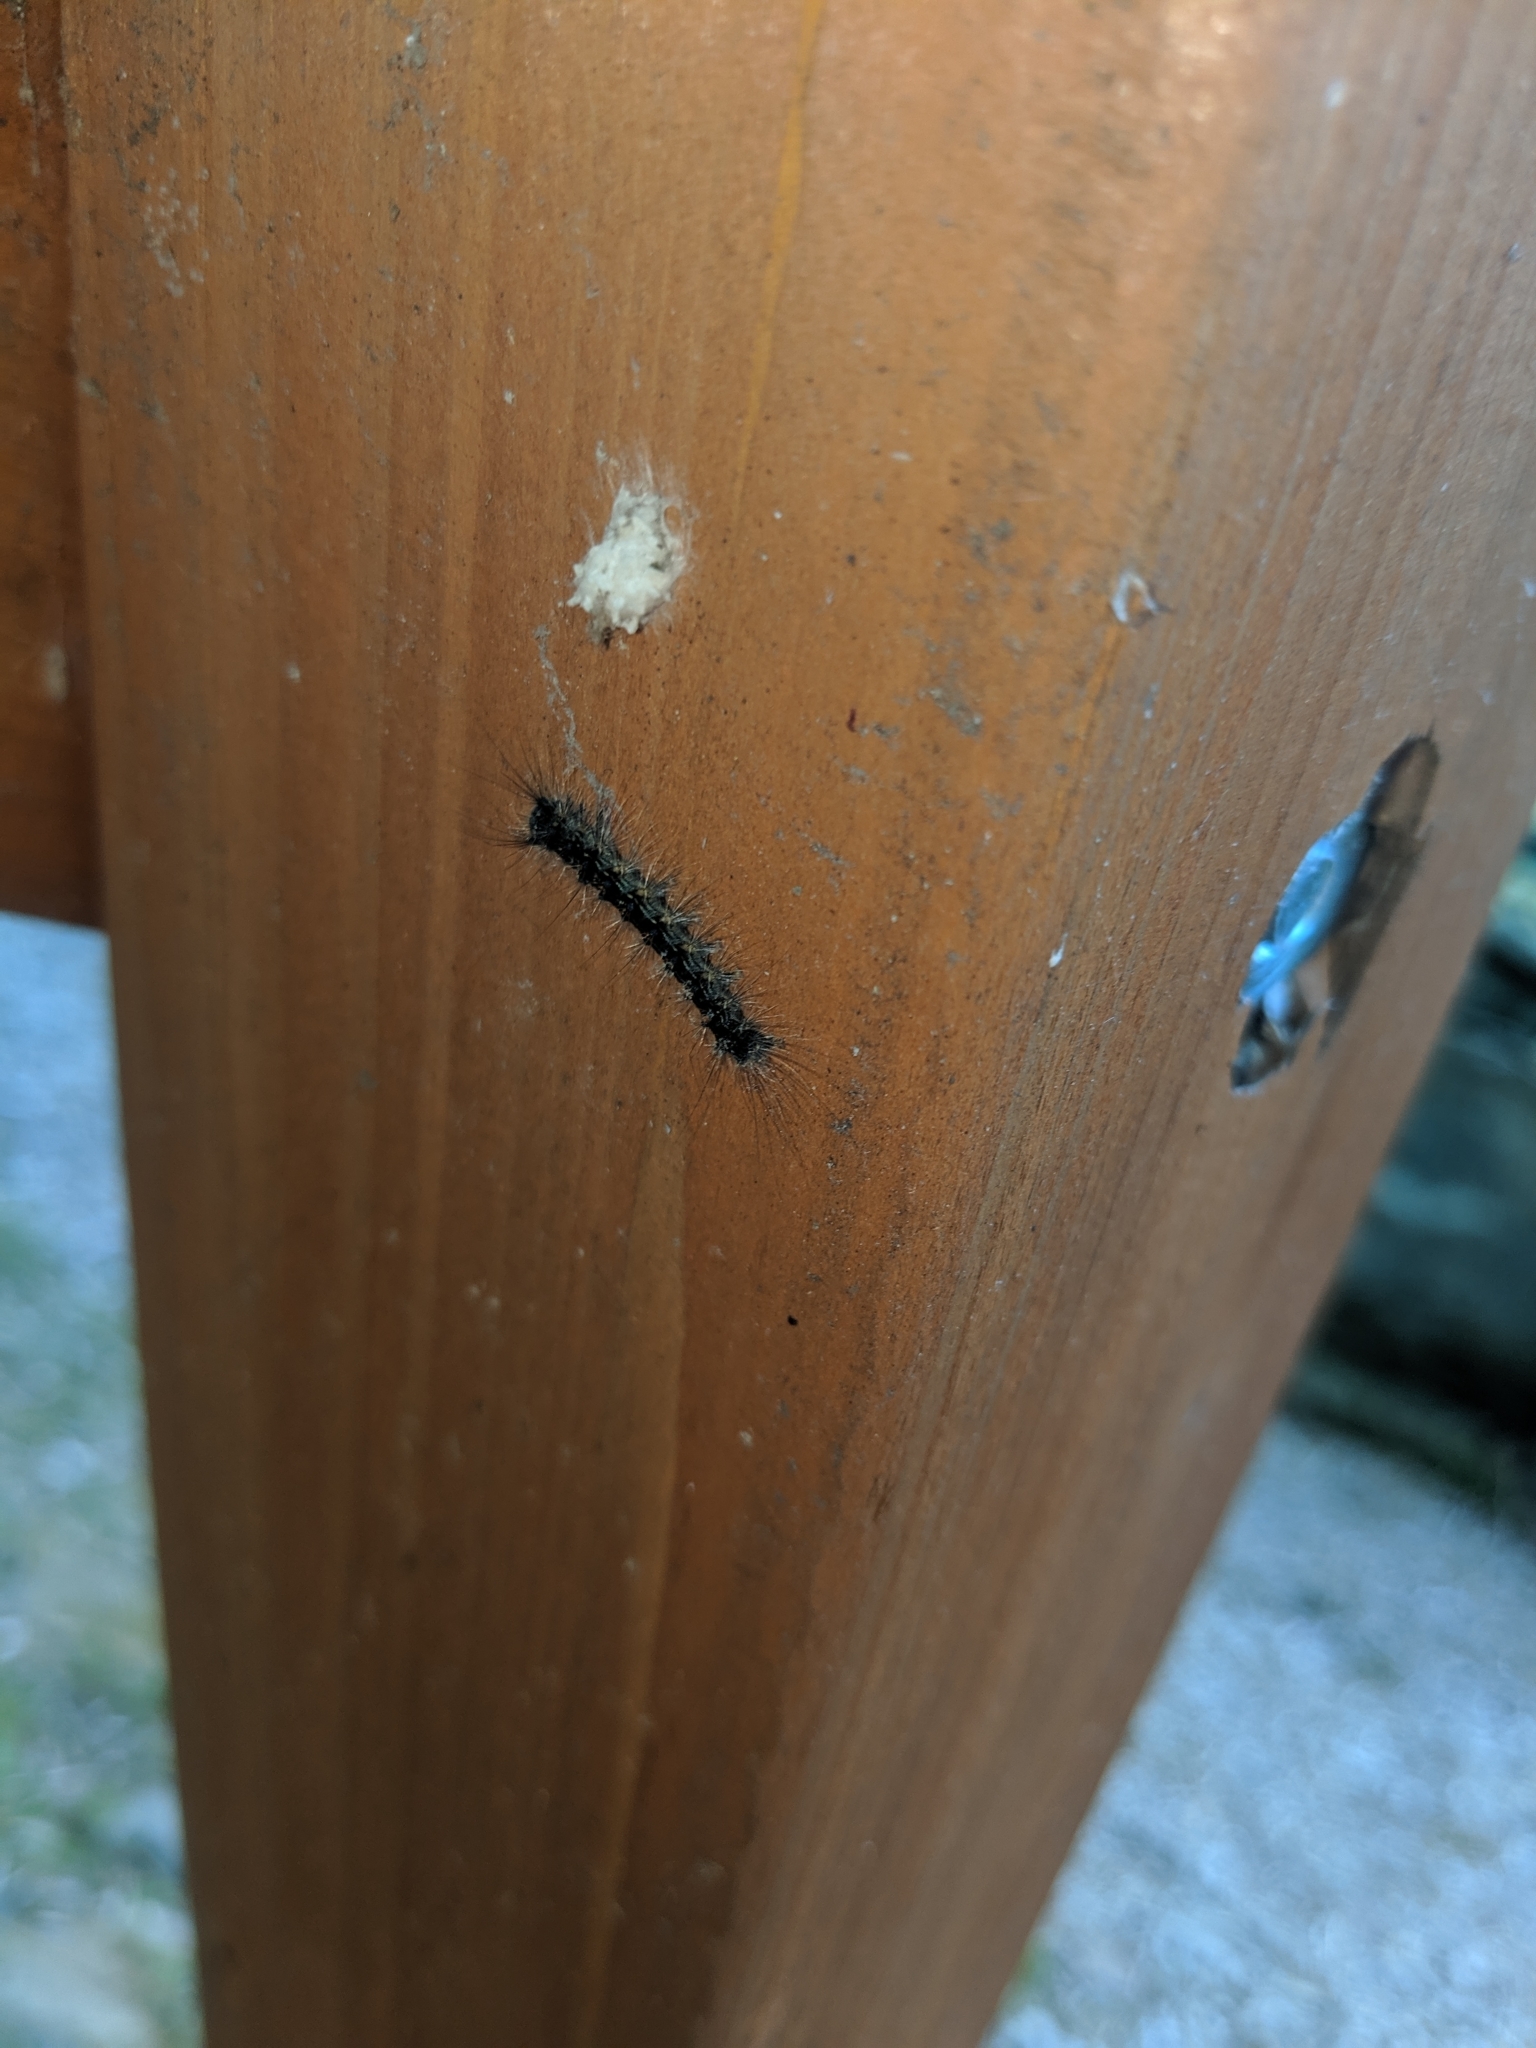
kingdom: Animalia
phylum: Arthropoda
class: Insecta
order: Lepidoptera
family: Erebidae
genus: Lymantria
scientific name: Lymantria dispar
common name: Gypsy moth
